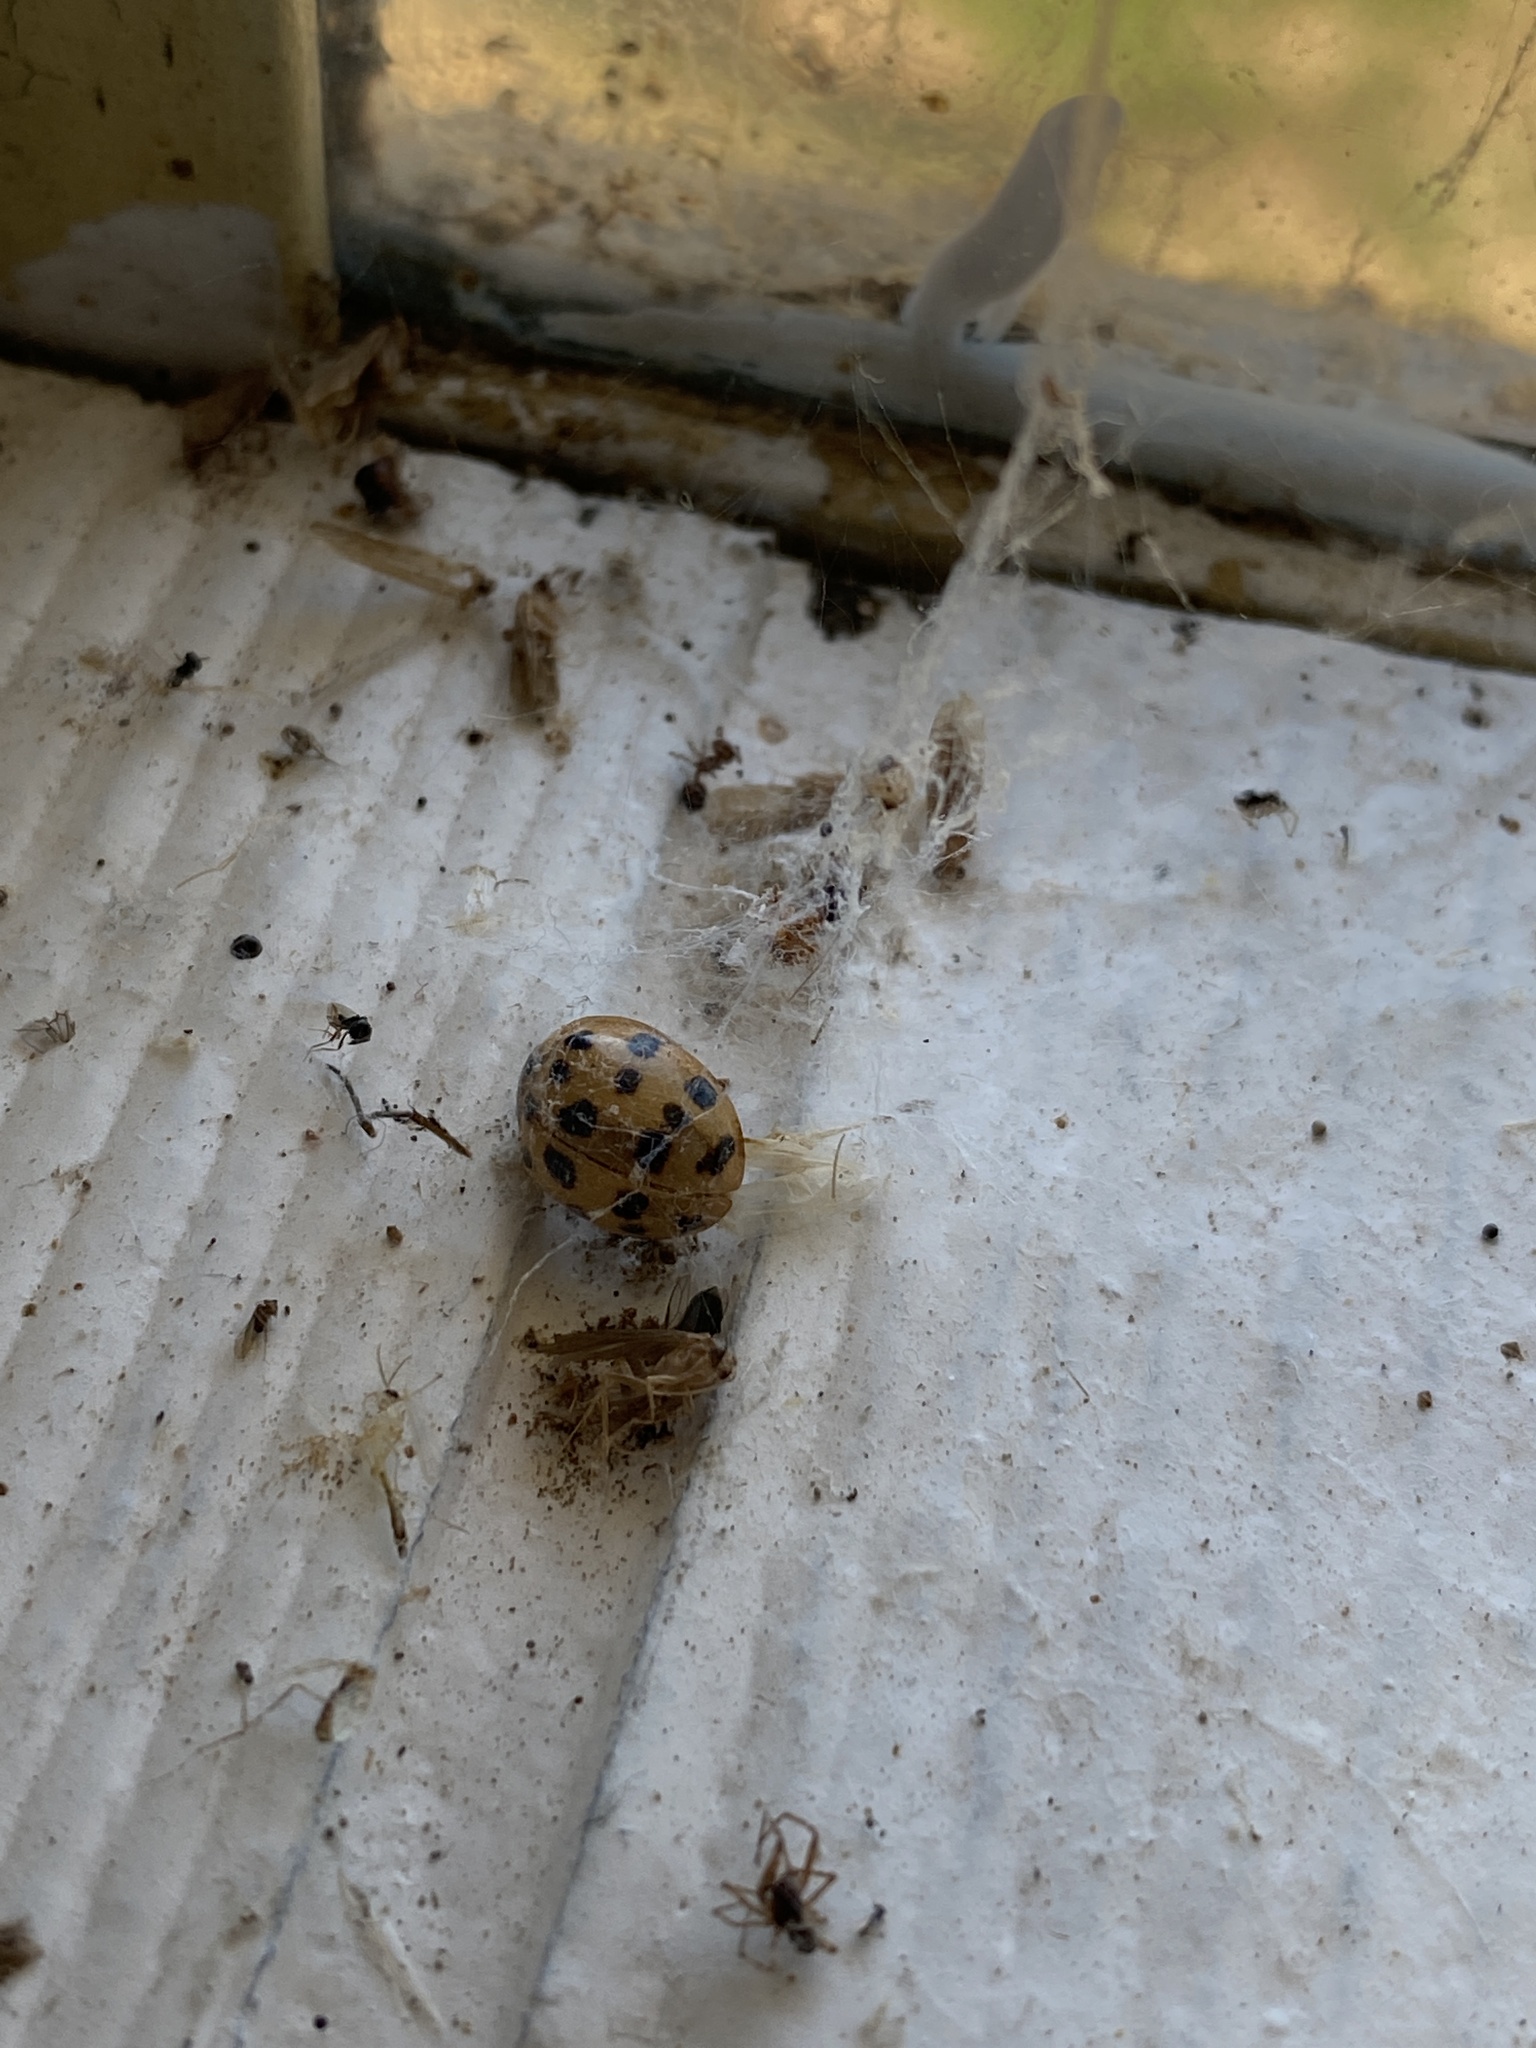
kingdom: Animalia
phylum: Arthropoda
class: Insecta
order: Coleoptera
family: Coccinellidae
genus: Harmonia
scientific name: Harmonia axyridis
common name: Harlequin ladybird
